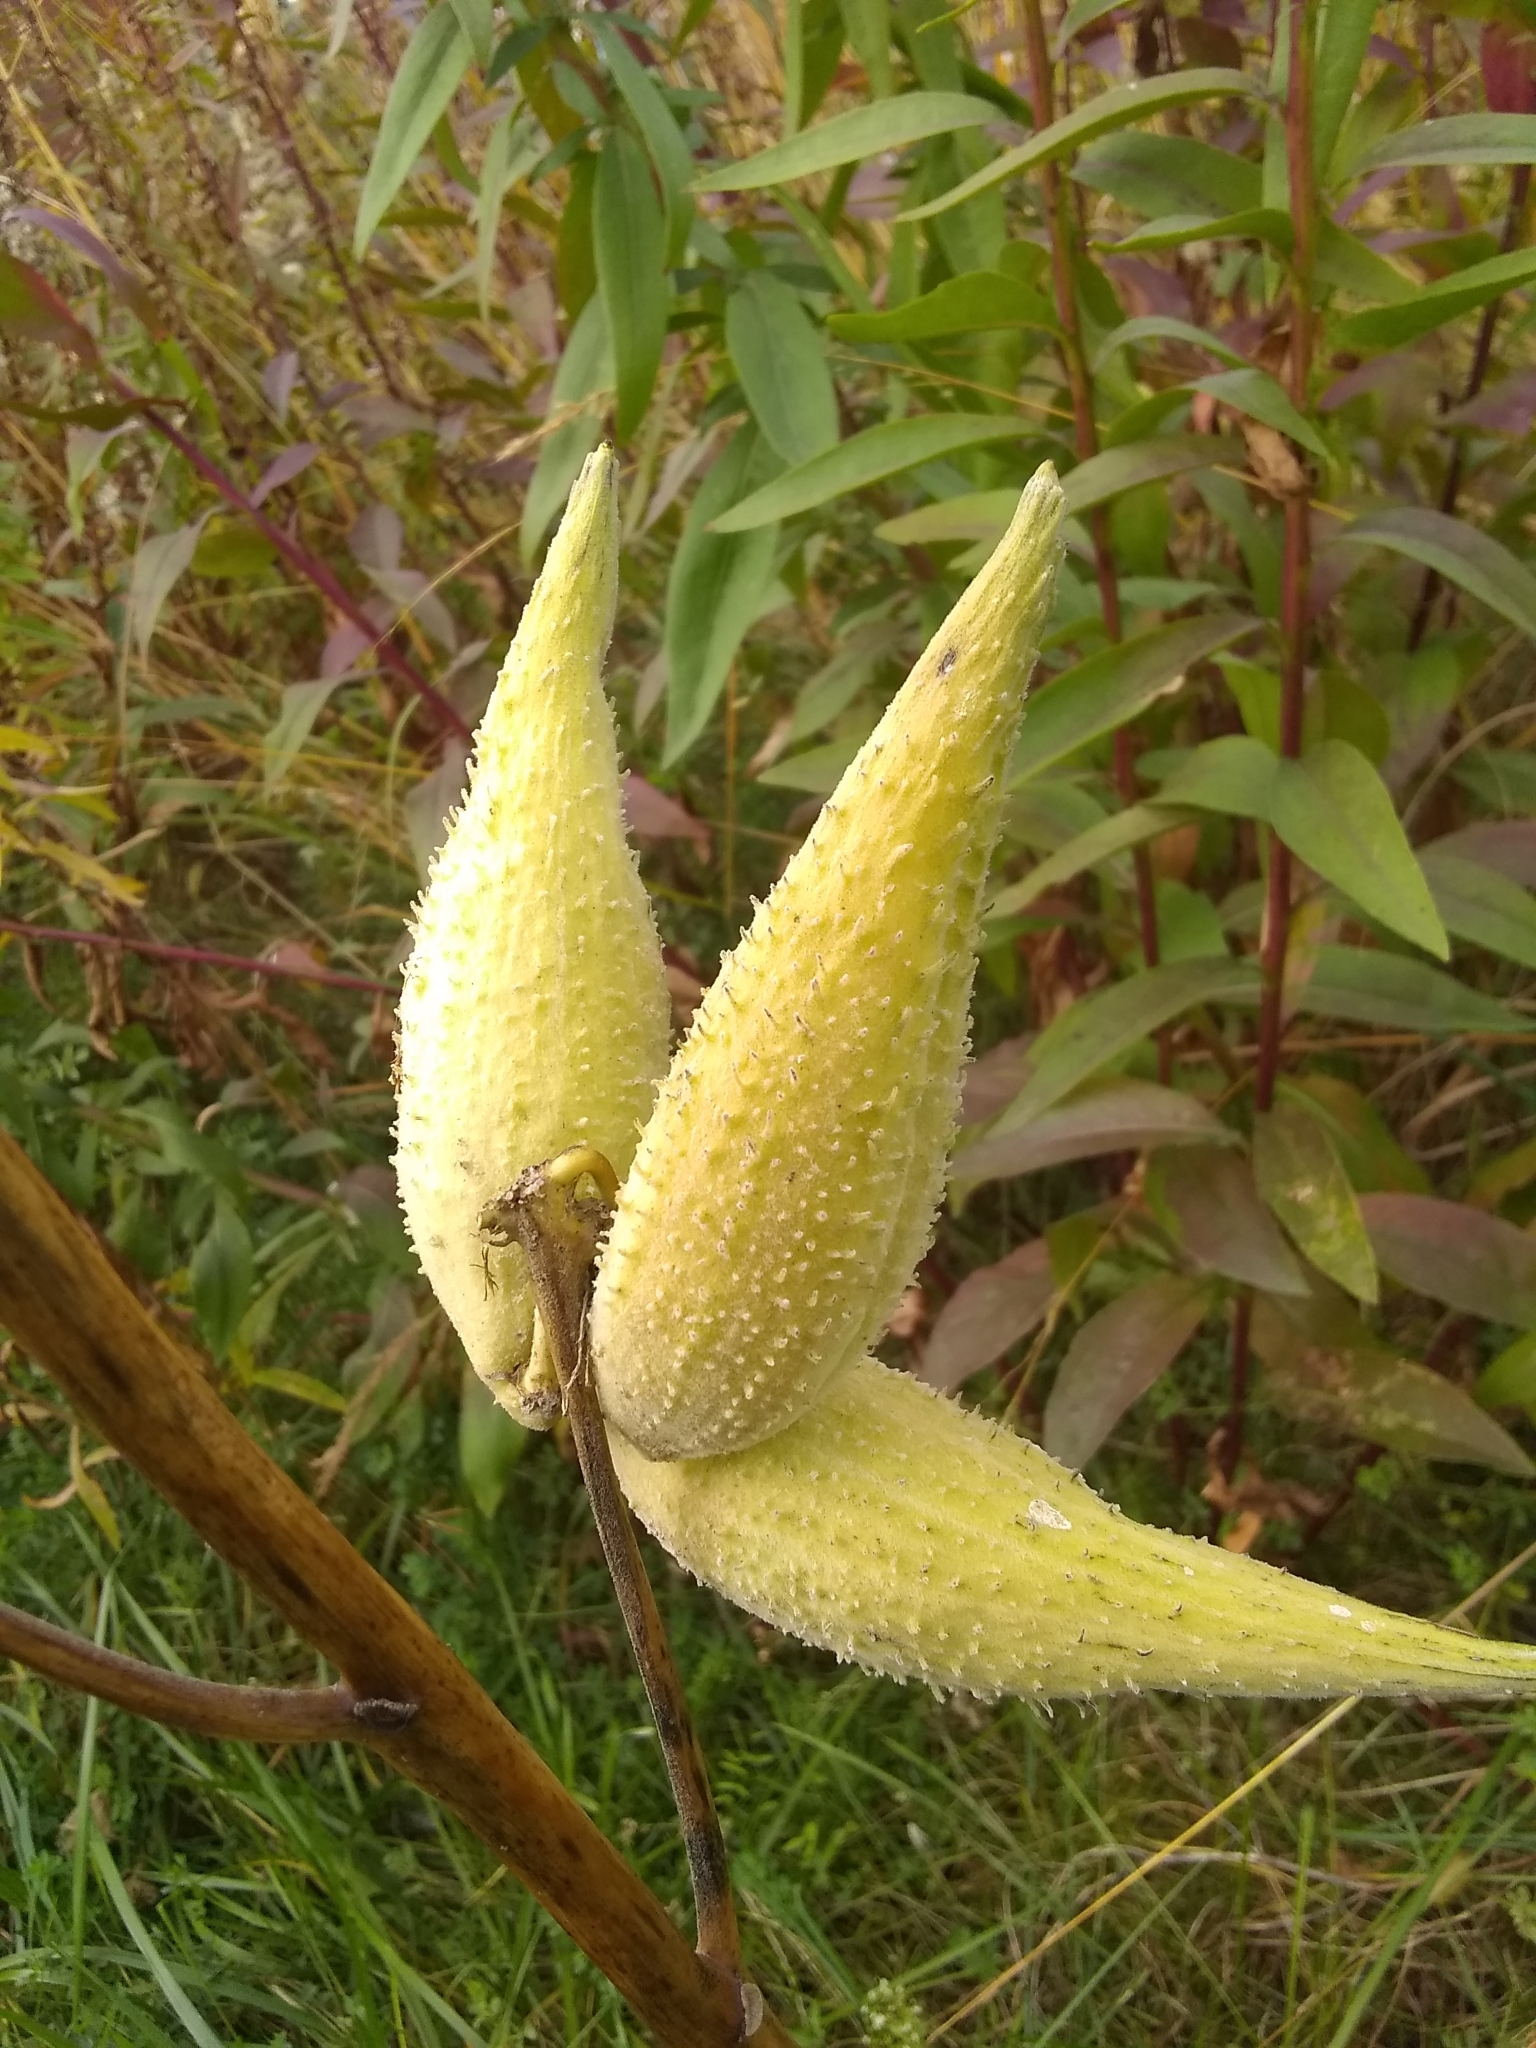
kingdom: Plantae
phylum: Tracheophyta
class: Magnoliopsida
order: Gentianales
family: Apocynaceae
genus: Asclepias
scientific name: Asclepias syriaca
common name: Common milkweed
